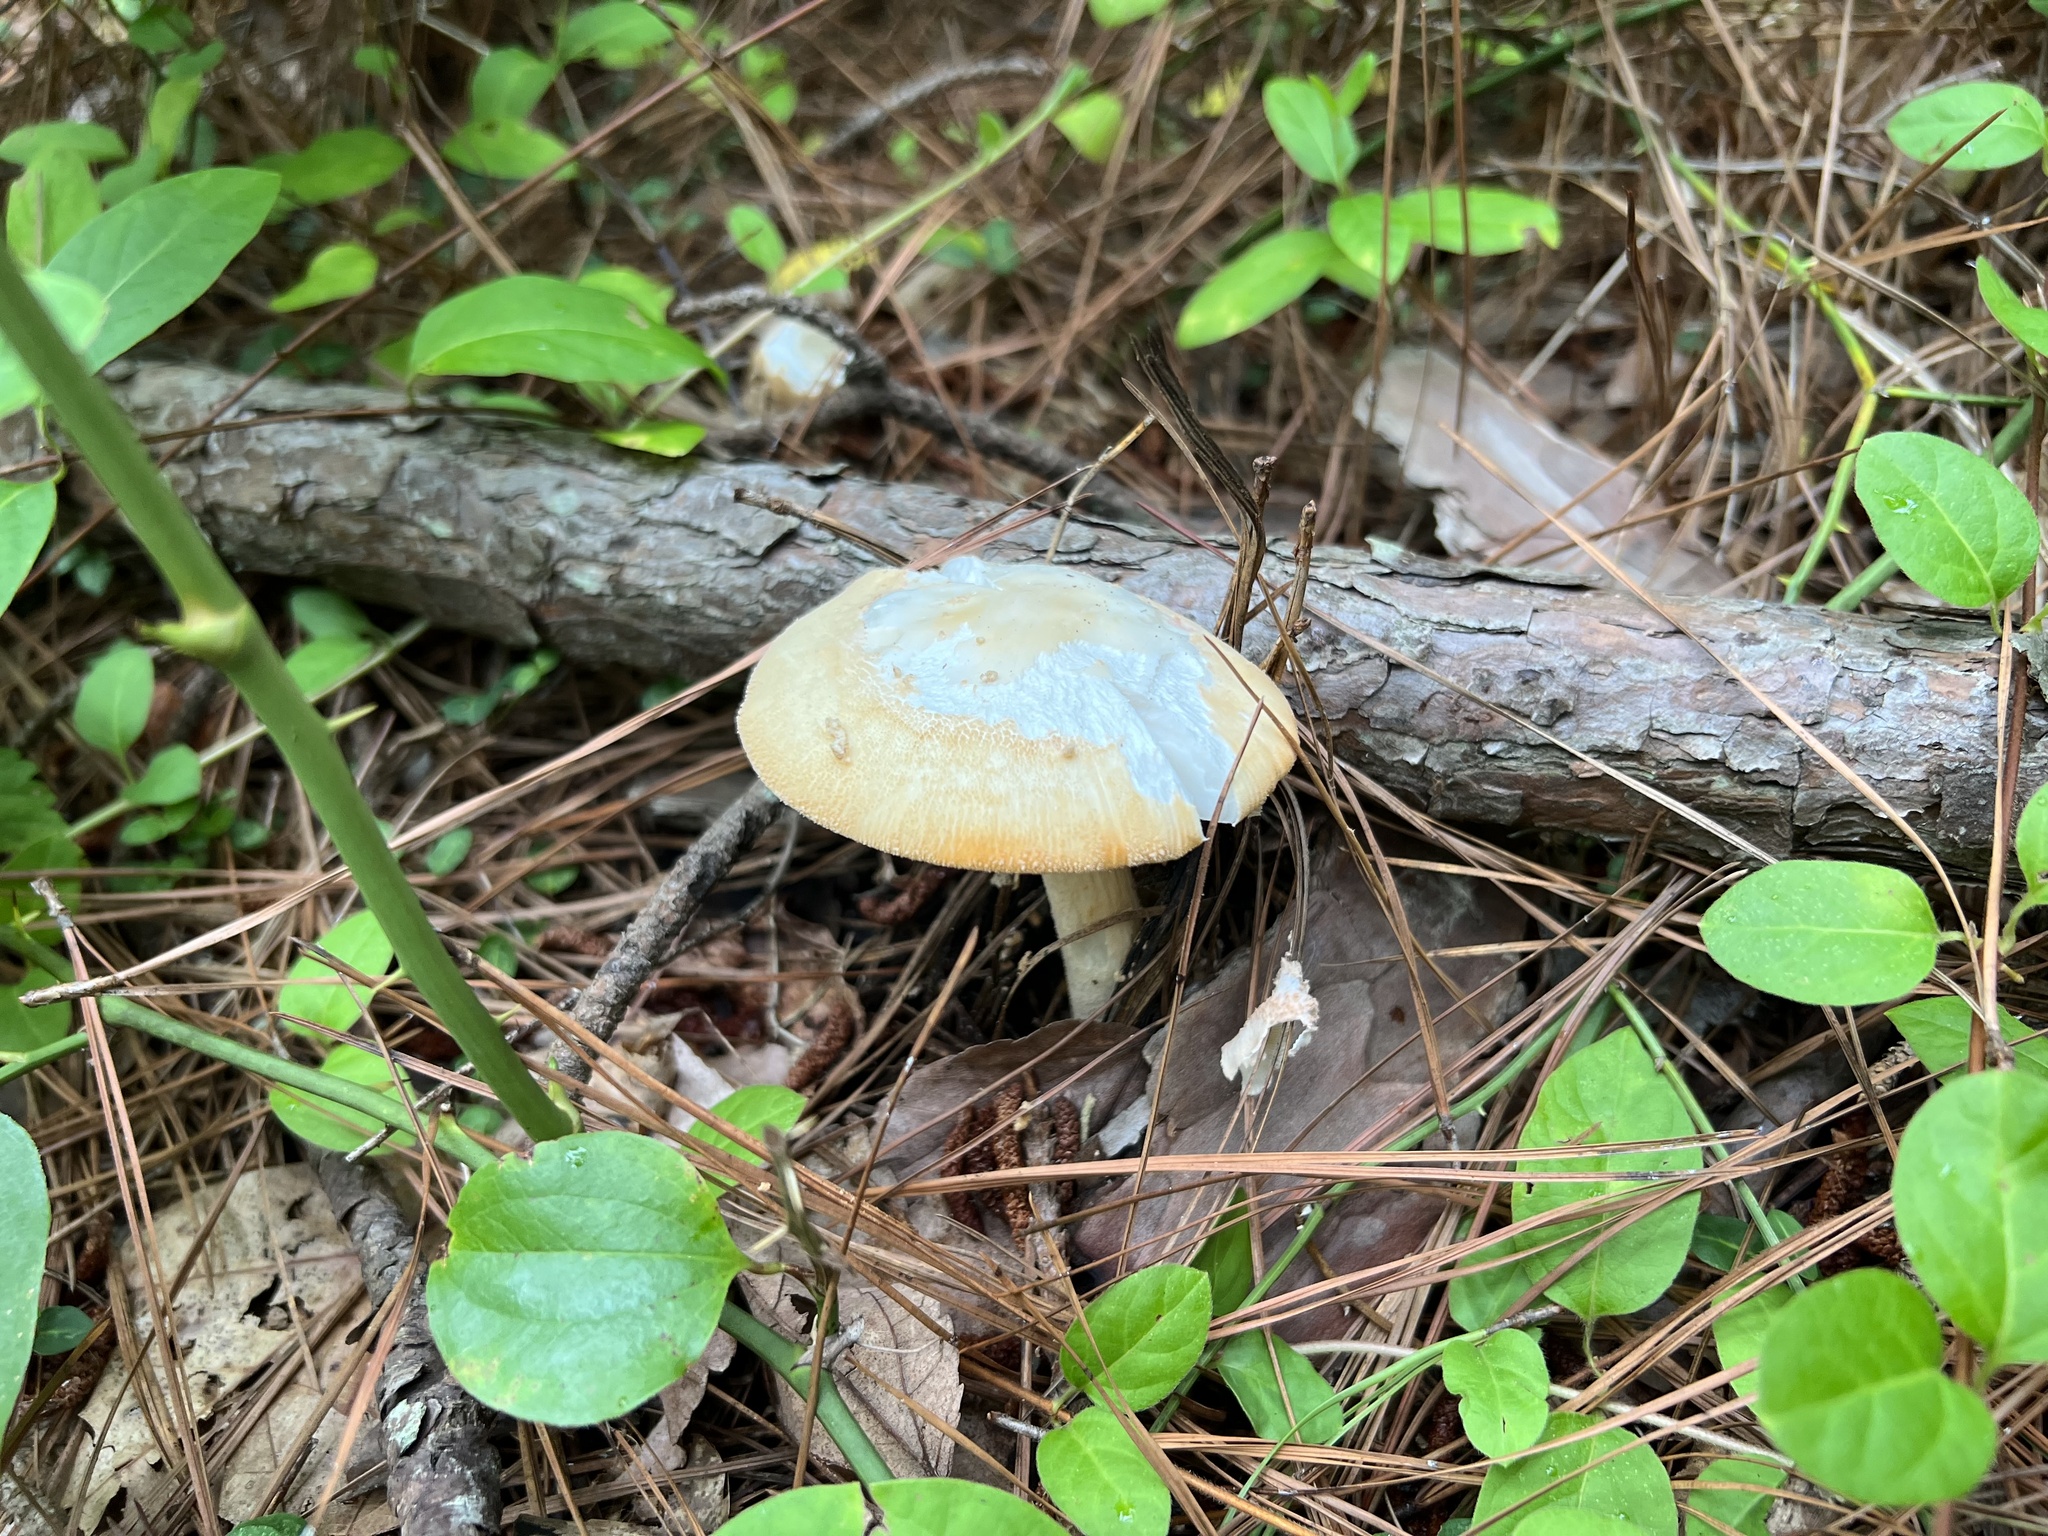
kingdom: Fungi
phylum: Basidiomycota
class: Agaricomycetes
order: Agaricales
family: Amanitaceae
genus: Amanita
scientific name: Amanita roseotincta
